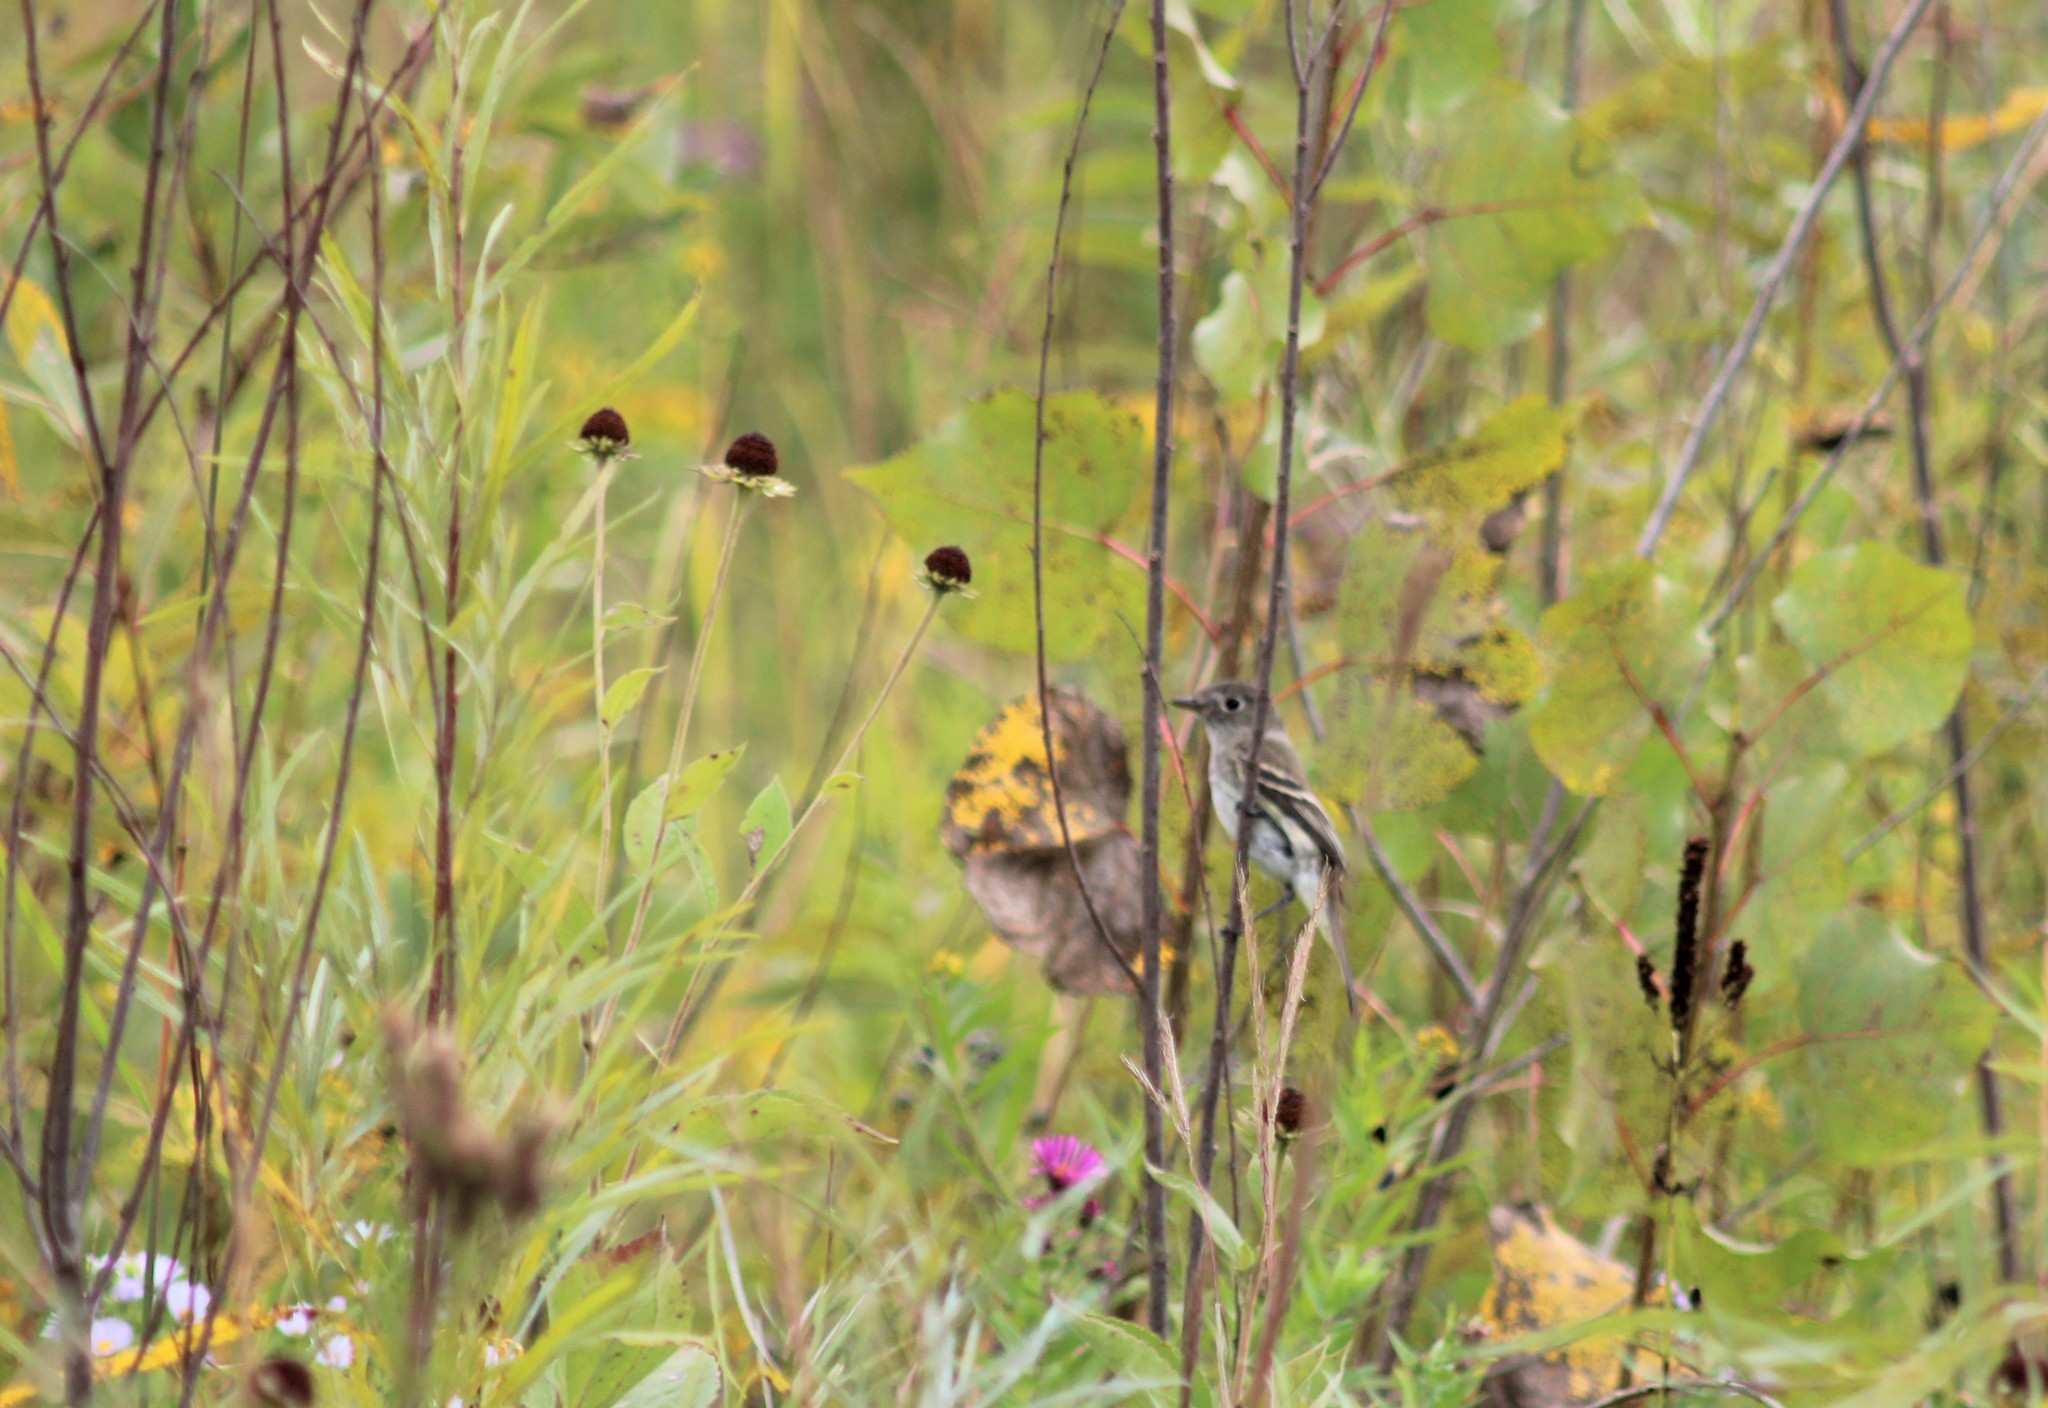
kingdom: Animalia
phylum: Chordata
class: Aves
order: Passeriformes
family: Tyrannidae
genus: Empidonax
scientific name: Empidonax minimus
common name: Least flycatcher
